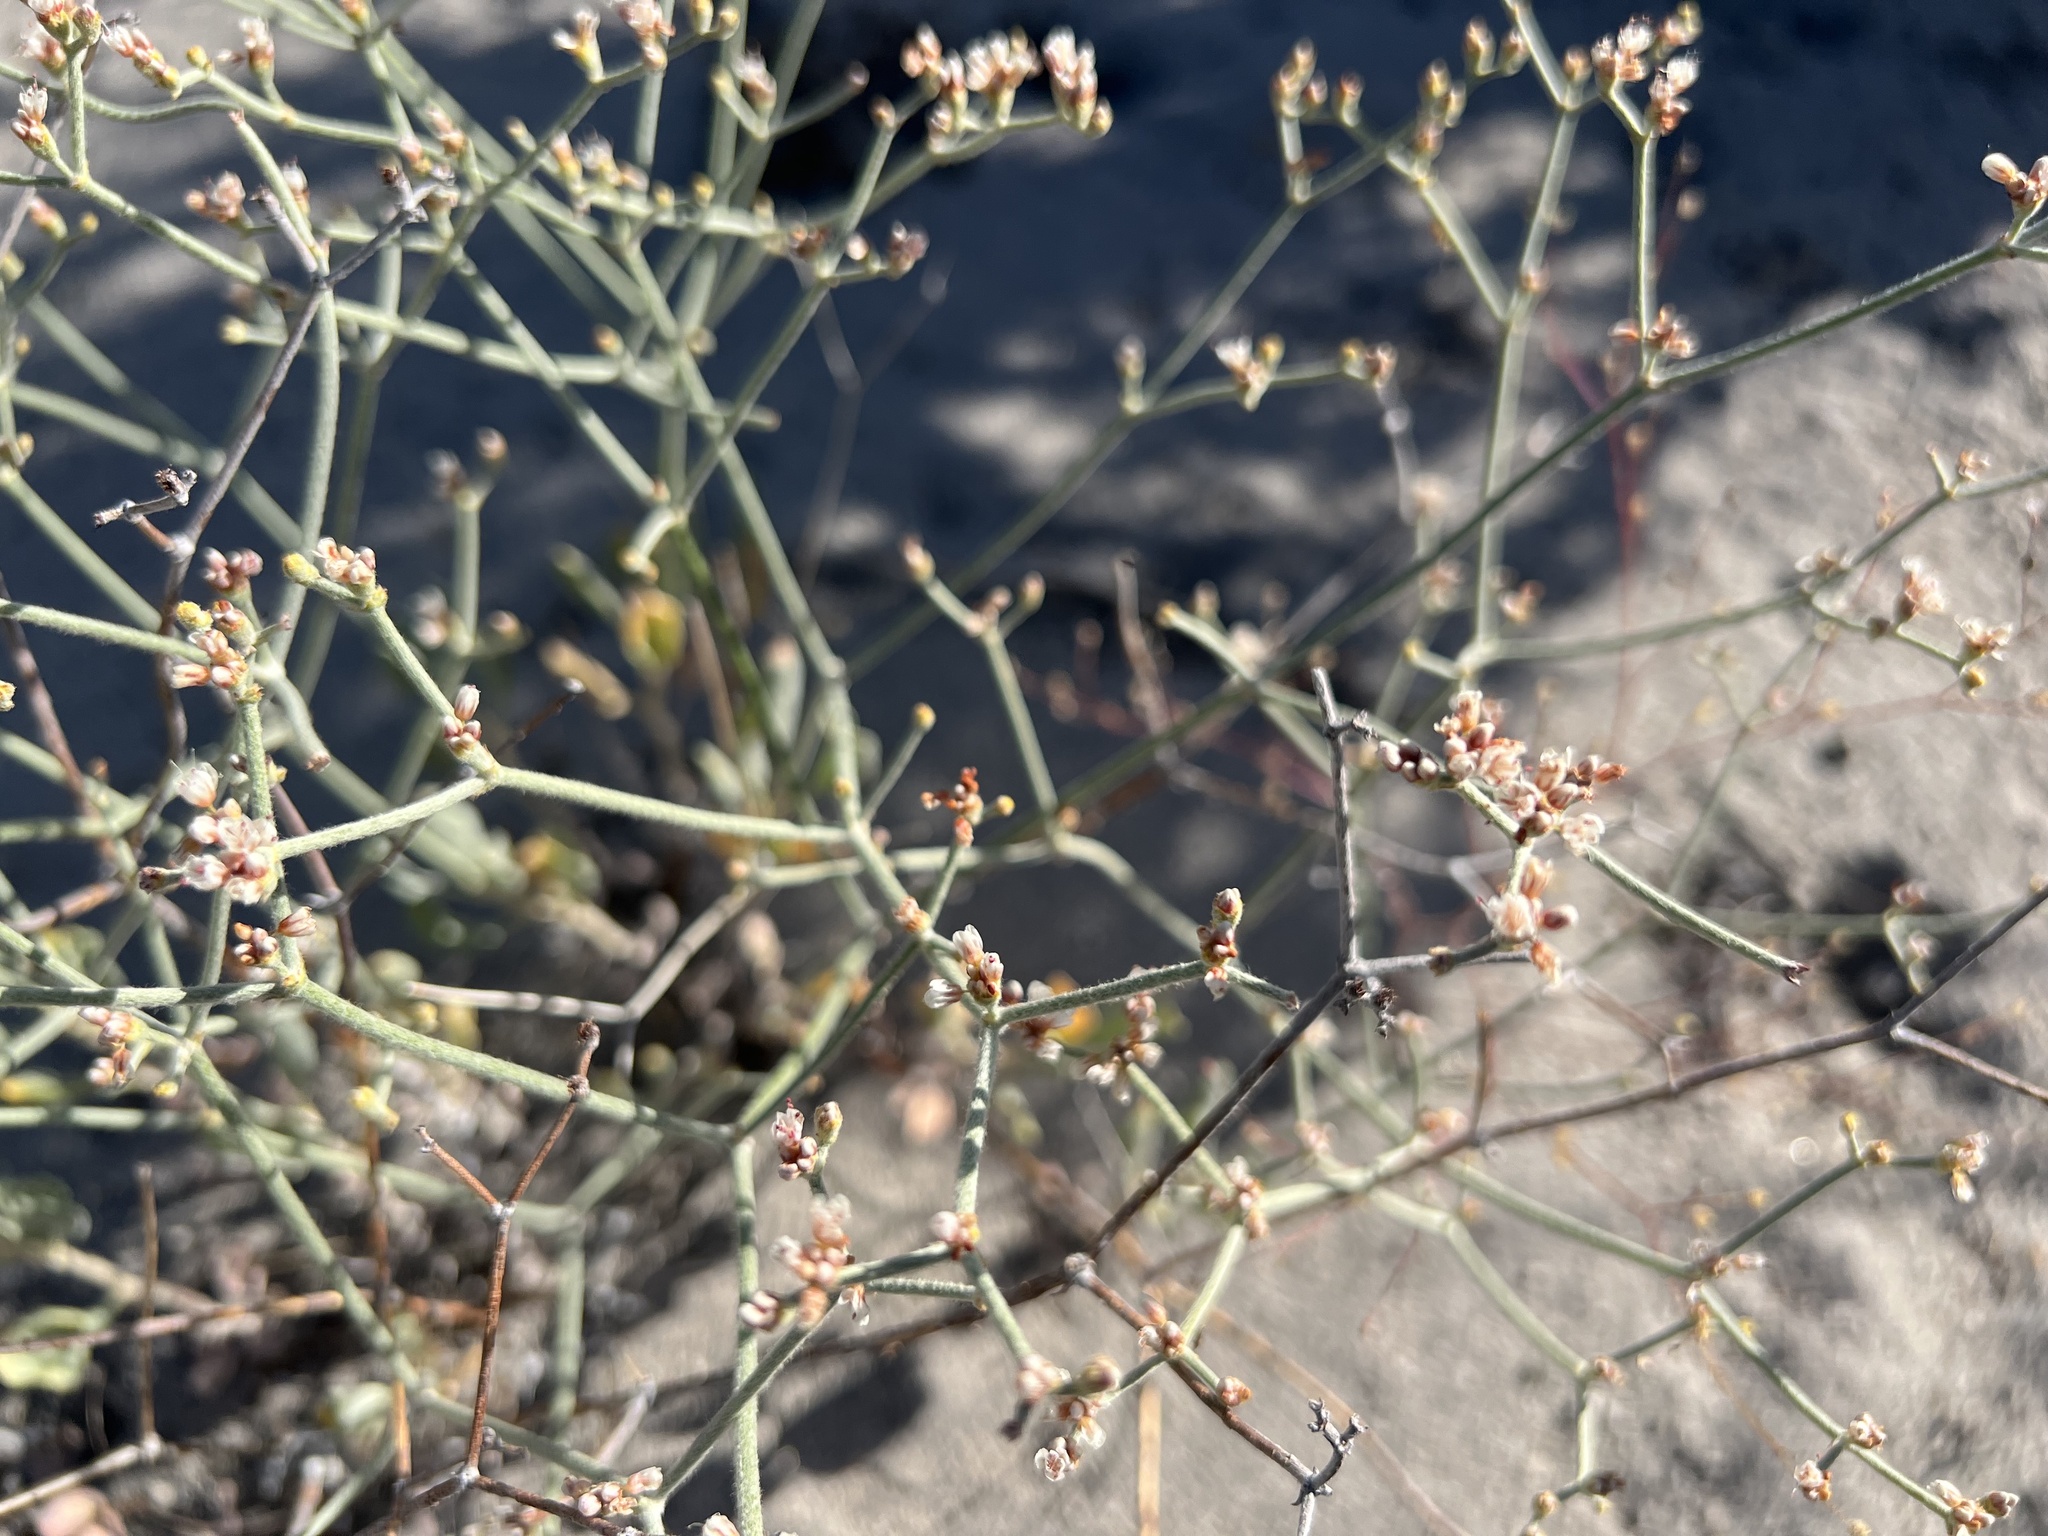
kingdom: Plantae
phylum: Tracheophyta
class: Magnoliopsida
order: Caryophyllales
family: Polygonaceae
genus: Eriogonum
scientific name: Eriogonum nummulare
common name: Kearney wild buckwheat
